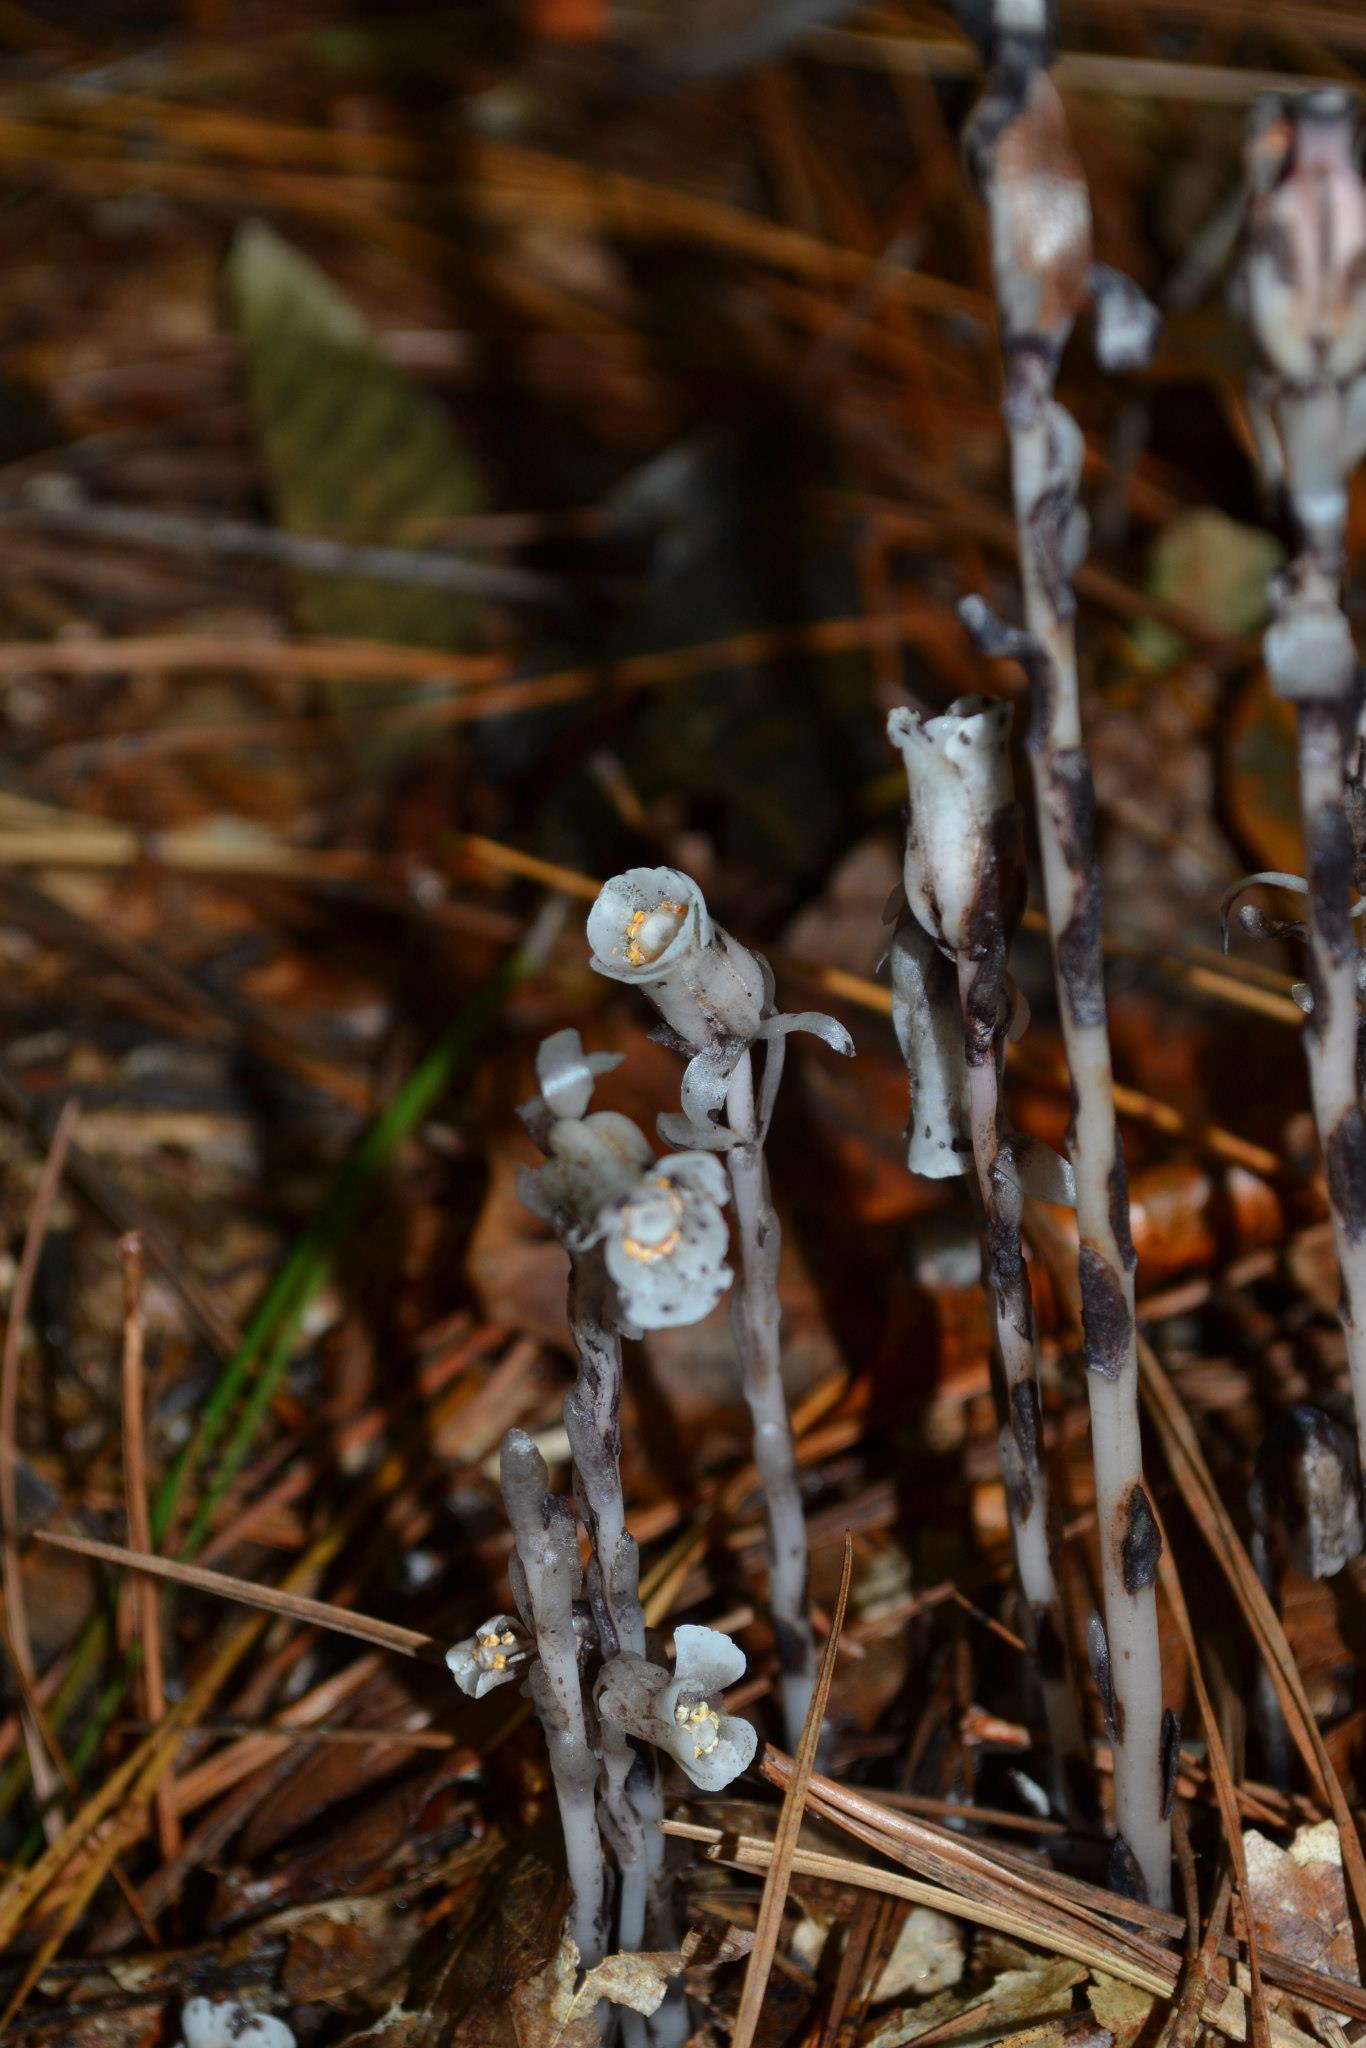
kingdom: Plantae
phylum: Tracheophyta
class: Magnoliopsida
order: Ericales
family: Ericaceae
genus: Monotropa
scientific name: Monotropa uniflora
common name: Convulsion root
